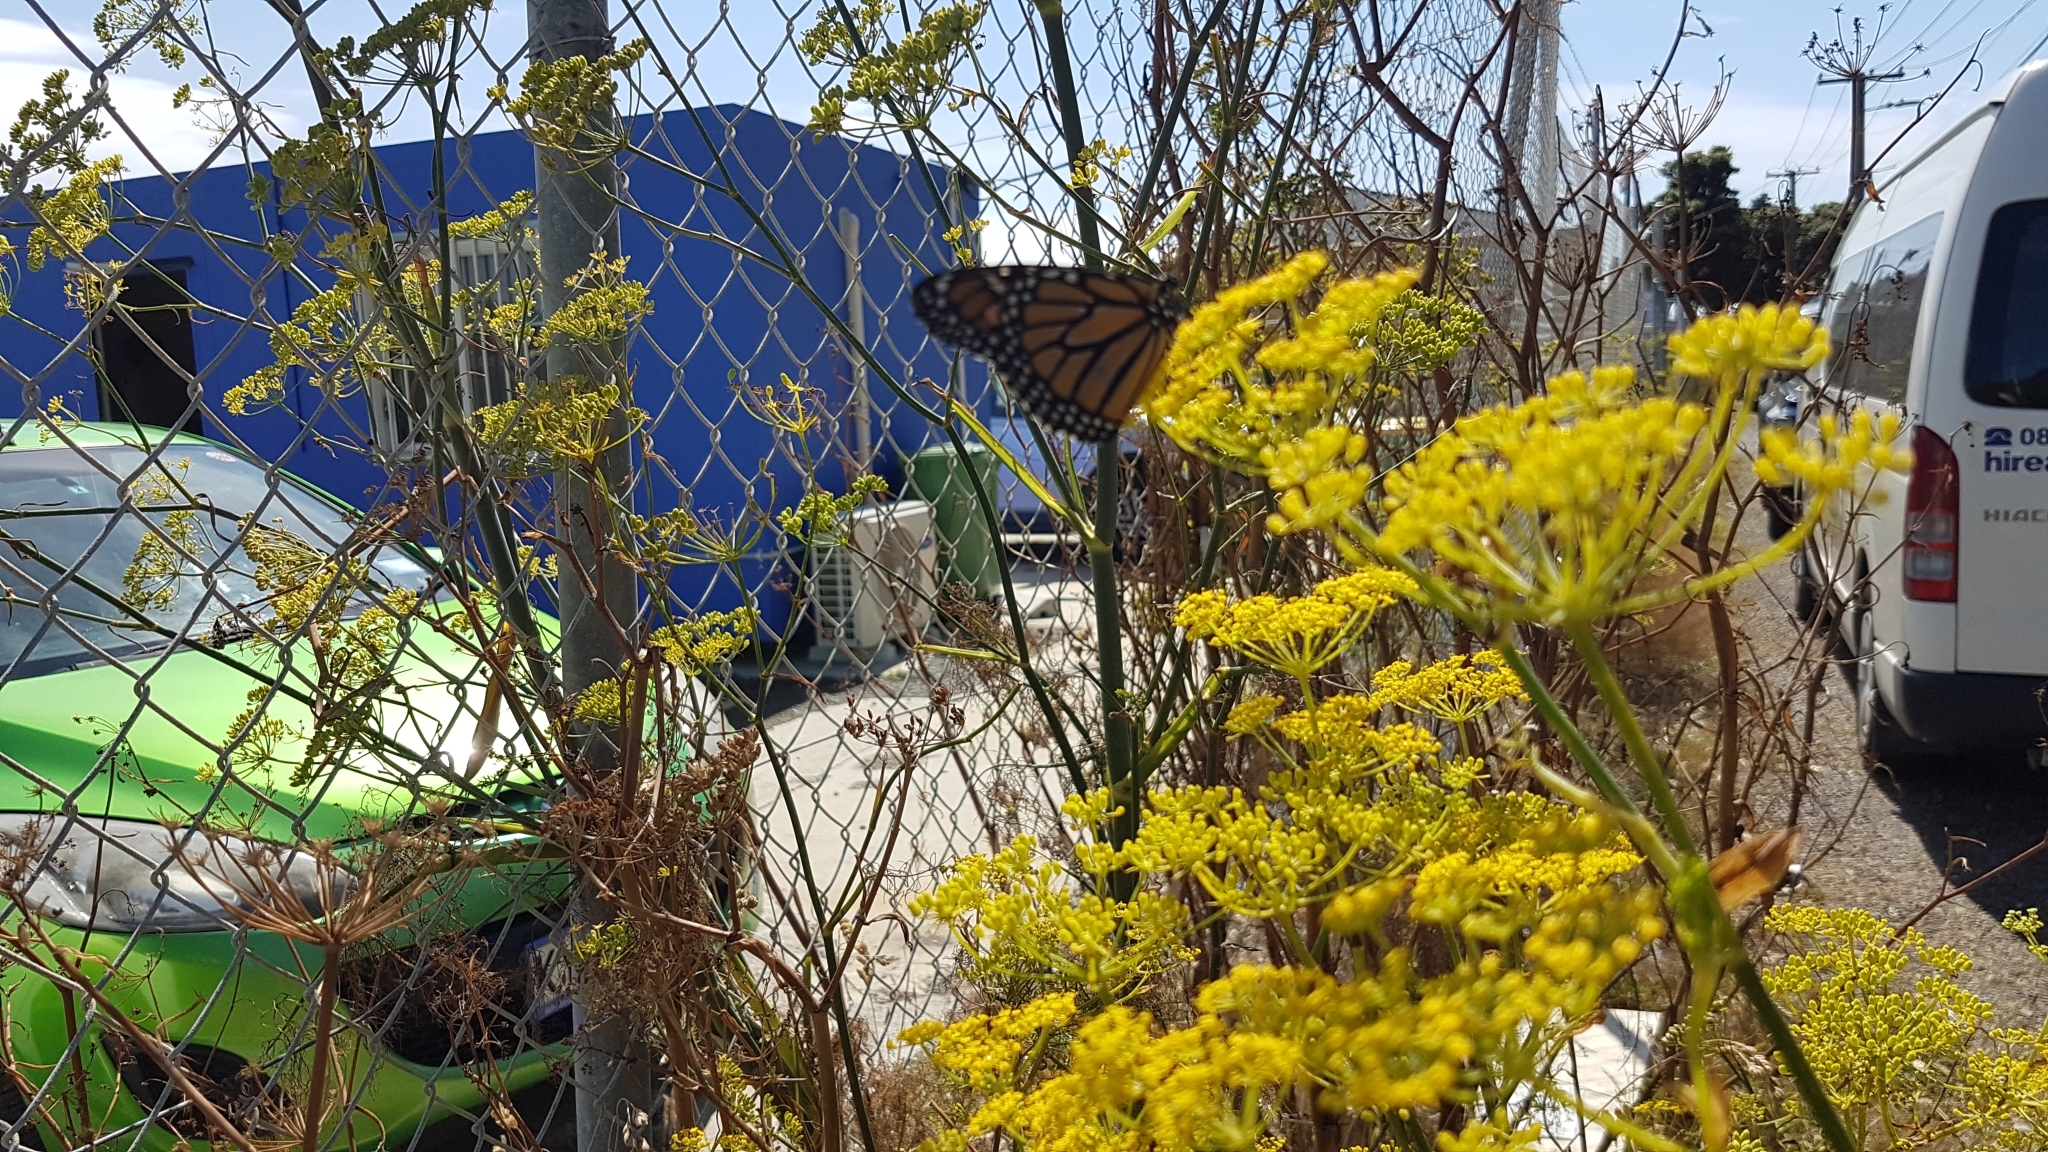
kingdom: Animalia
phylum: Arthropoda
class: Insecta
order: Lepidoptera
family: Nymphalidae
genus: Danaus
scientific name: Danaus plexippus
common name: Monarch
